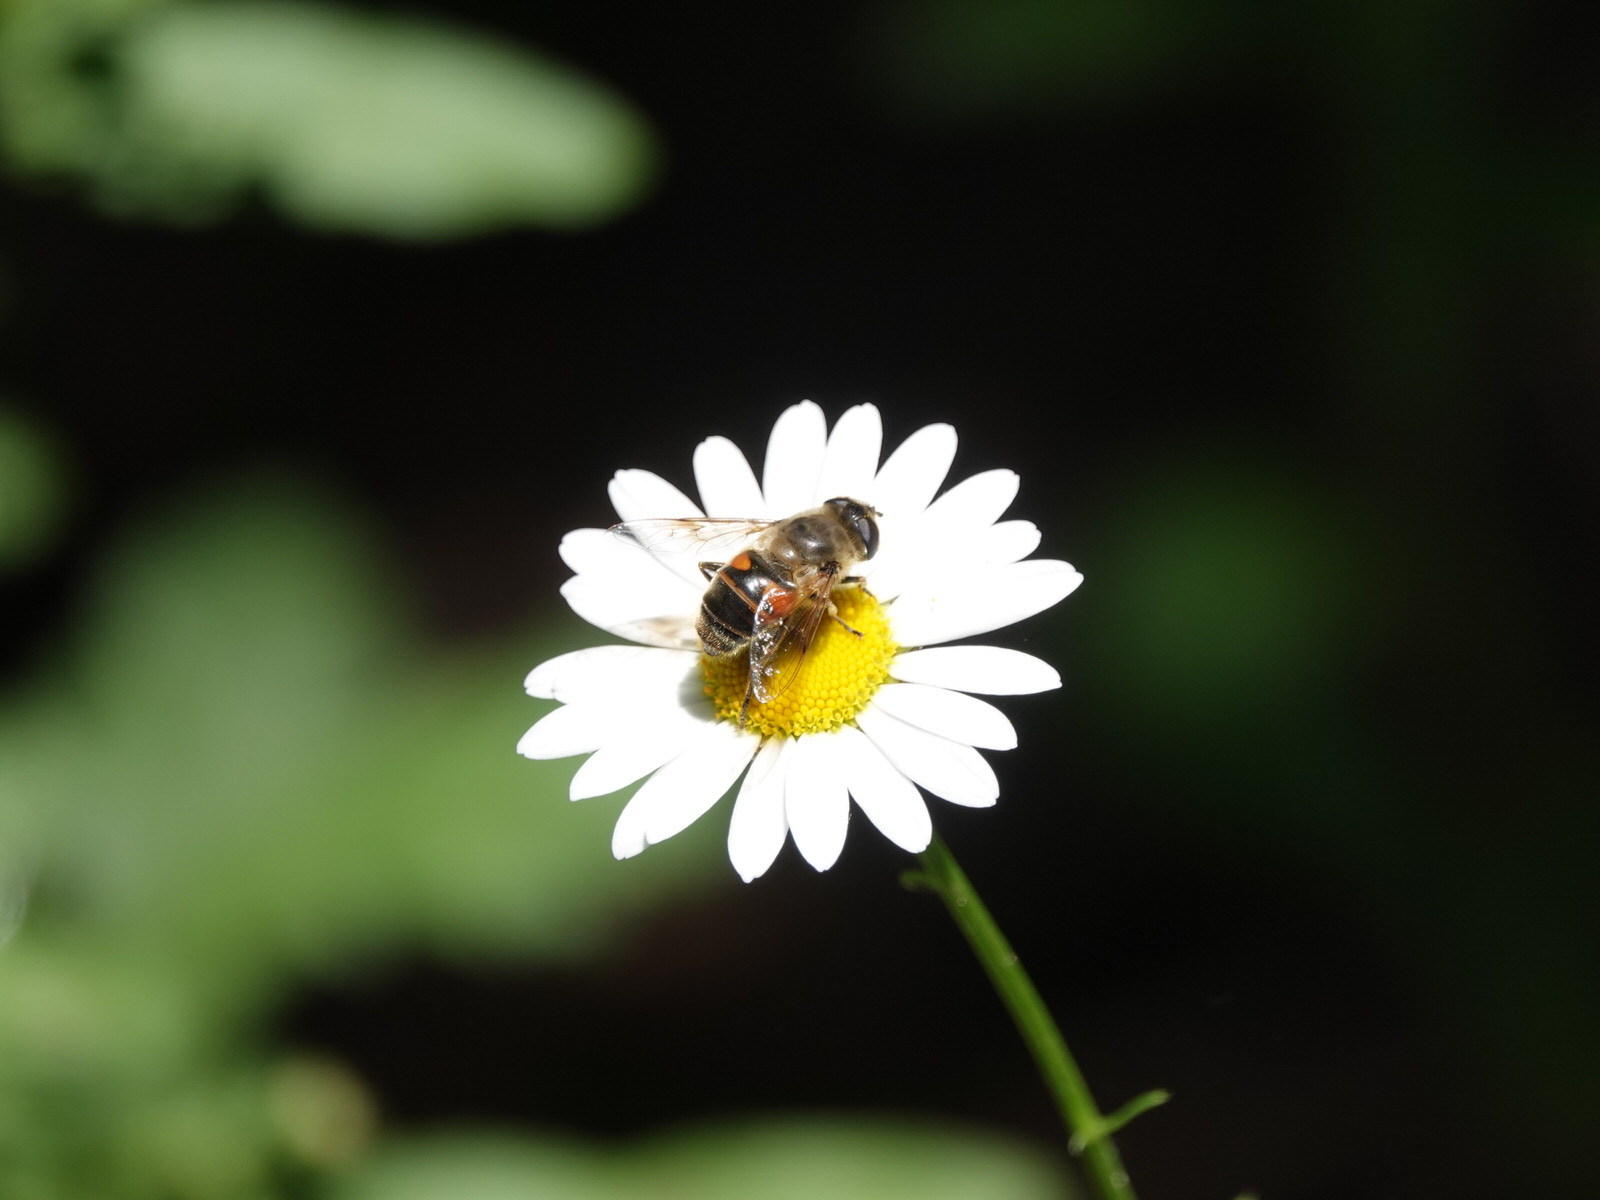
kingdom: Animalia
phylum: Arthropoda
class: Insecta
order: Diptera
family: Syrphidae
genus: Eristalis
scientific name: Eristalis tenax
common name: Drone fly
